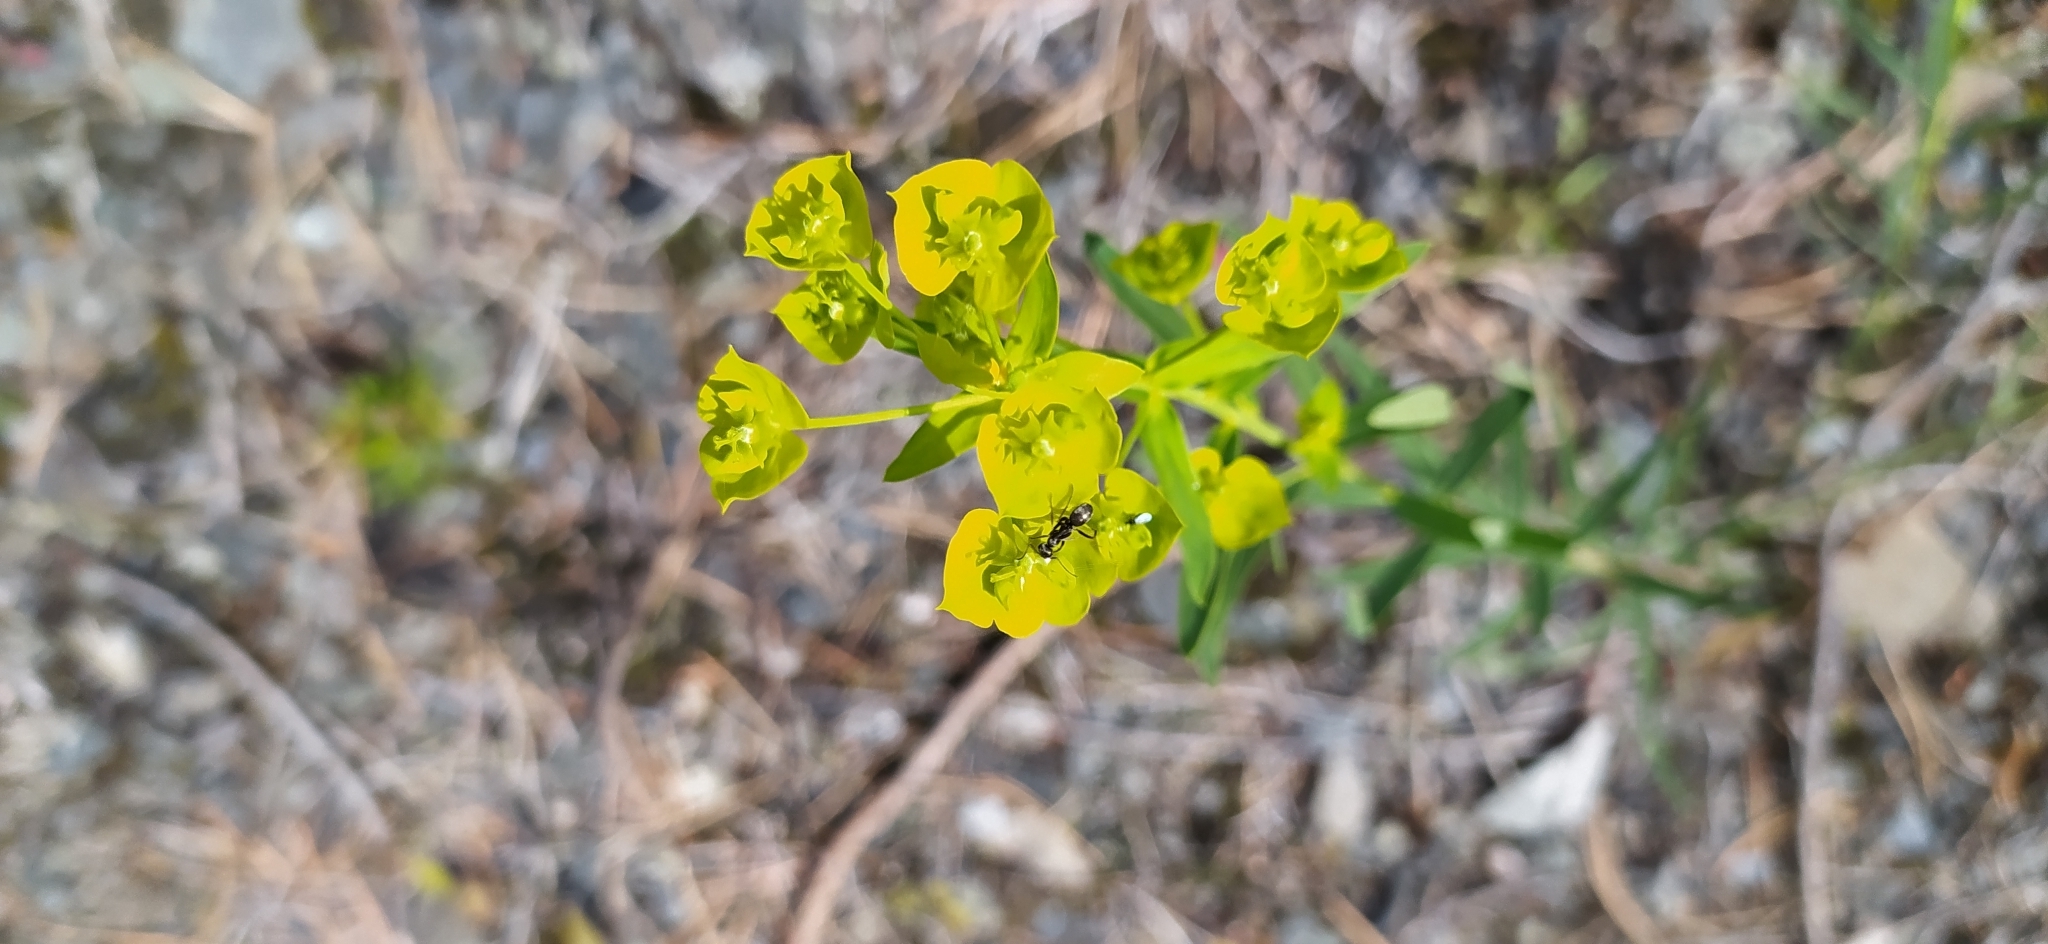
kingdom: Plantae
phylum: Tracheophyta
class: Magnoliopsida
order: Malpighiales
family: Euphorbiaceae
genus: Euphorbia
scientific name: Euphorbia virgata
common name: Leafy spurge
